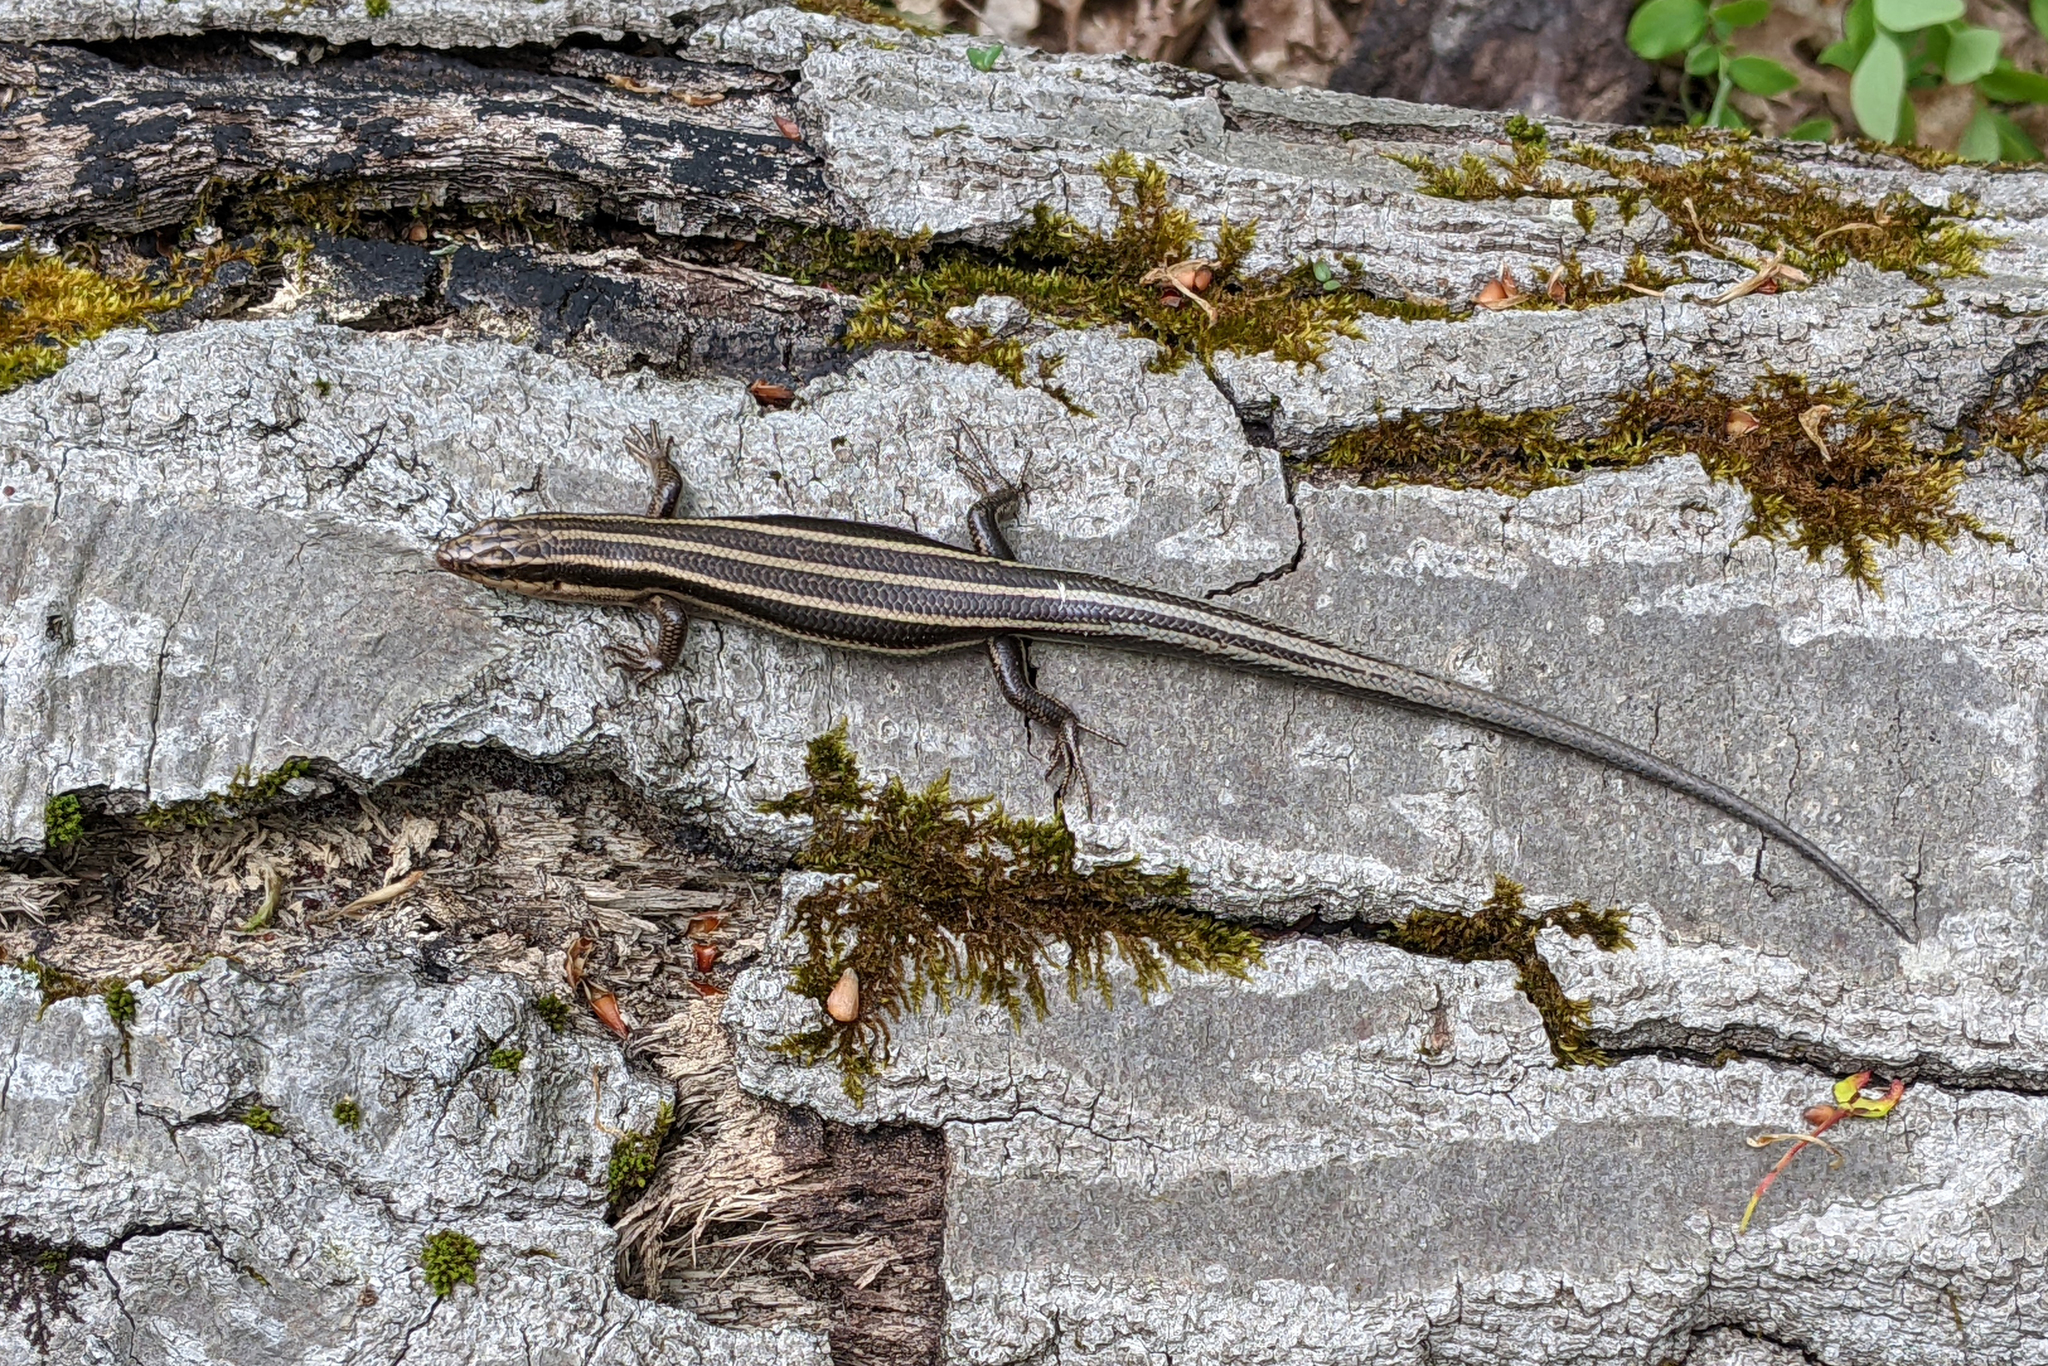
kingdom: Animalia
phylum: Chordata
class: Squamata
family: Scincidae
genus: Plestiodon
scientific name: Plestiodon fasciatus
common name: Five-lined skink
